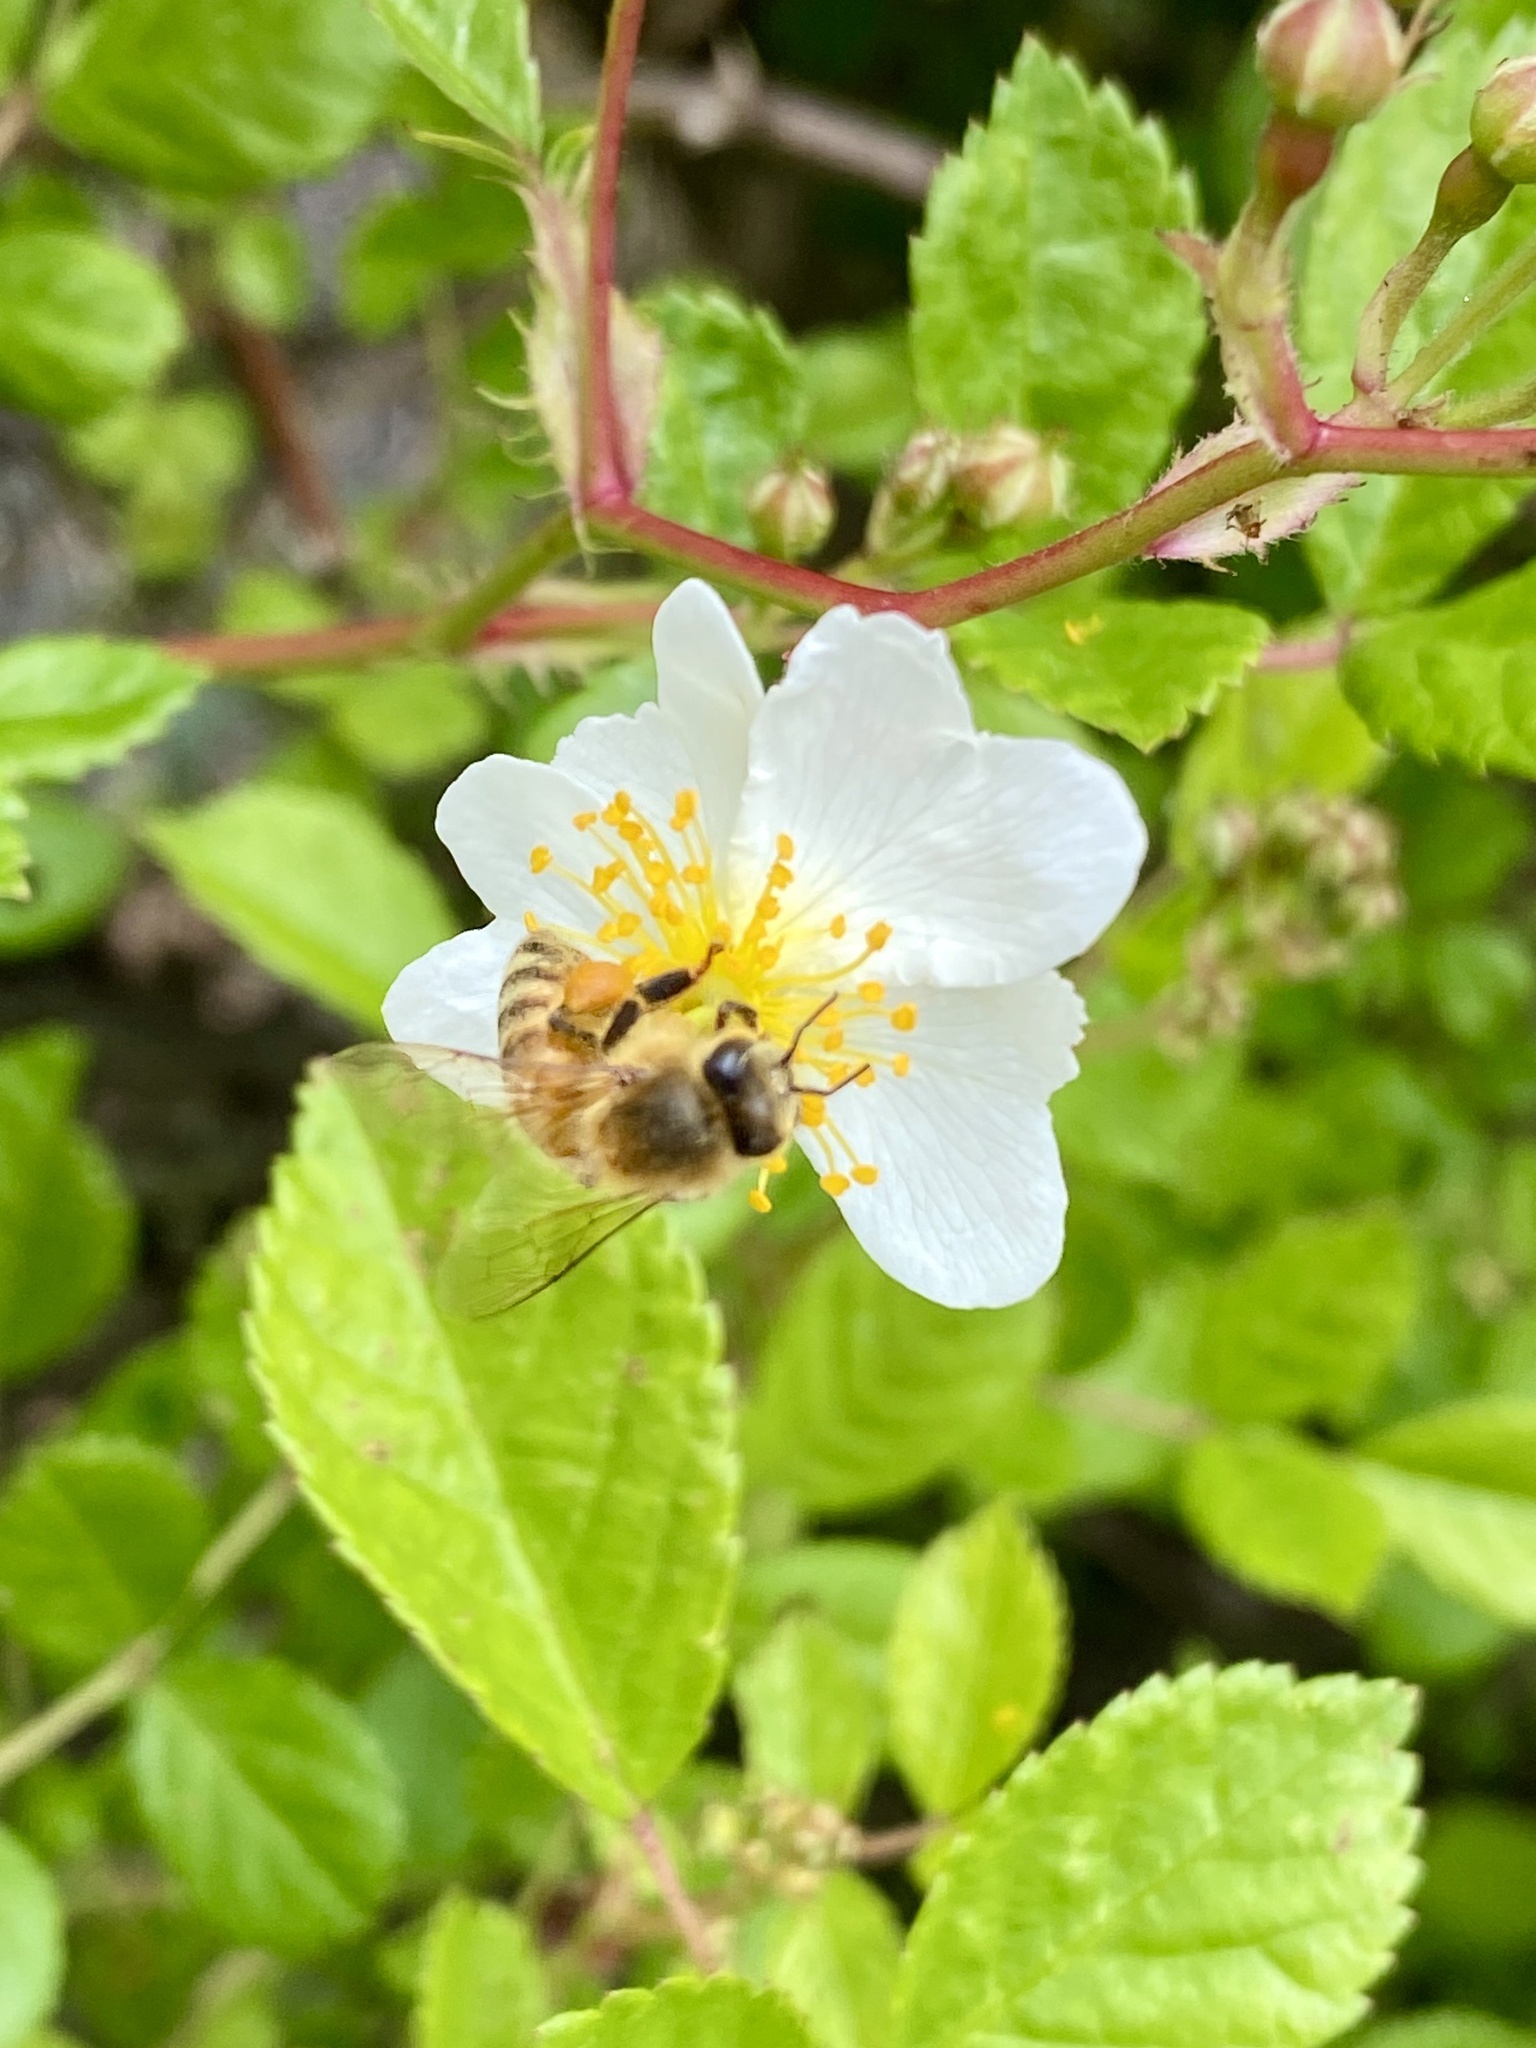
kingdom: Animalia
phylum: Arthropoda
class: Insecta
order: Hymenoptera
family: Apidae
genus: Apis
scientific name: Apis mellifera
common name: Honey bee
